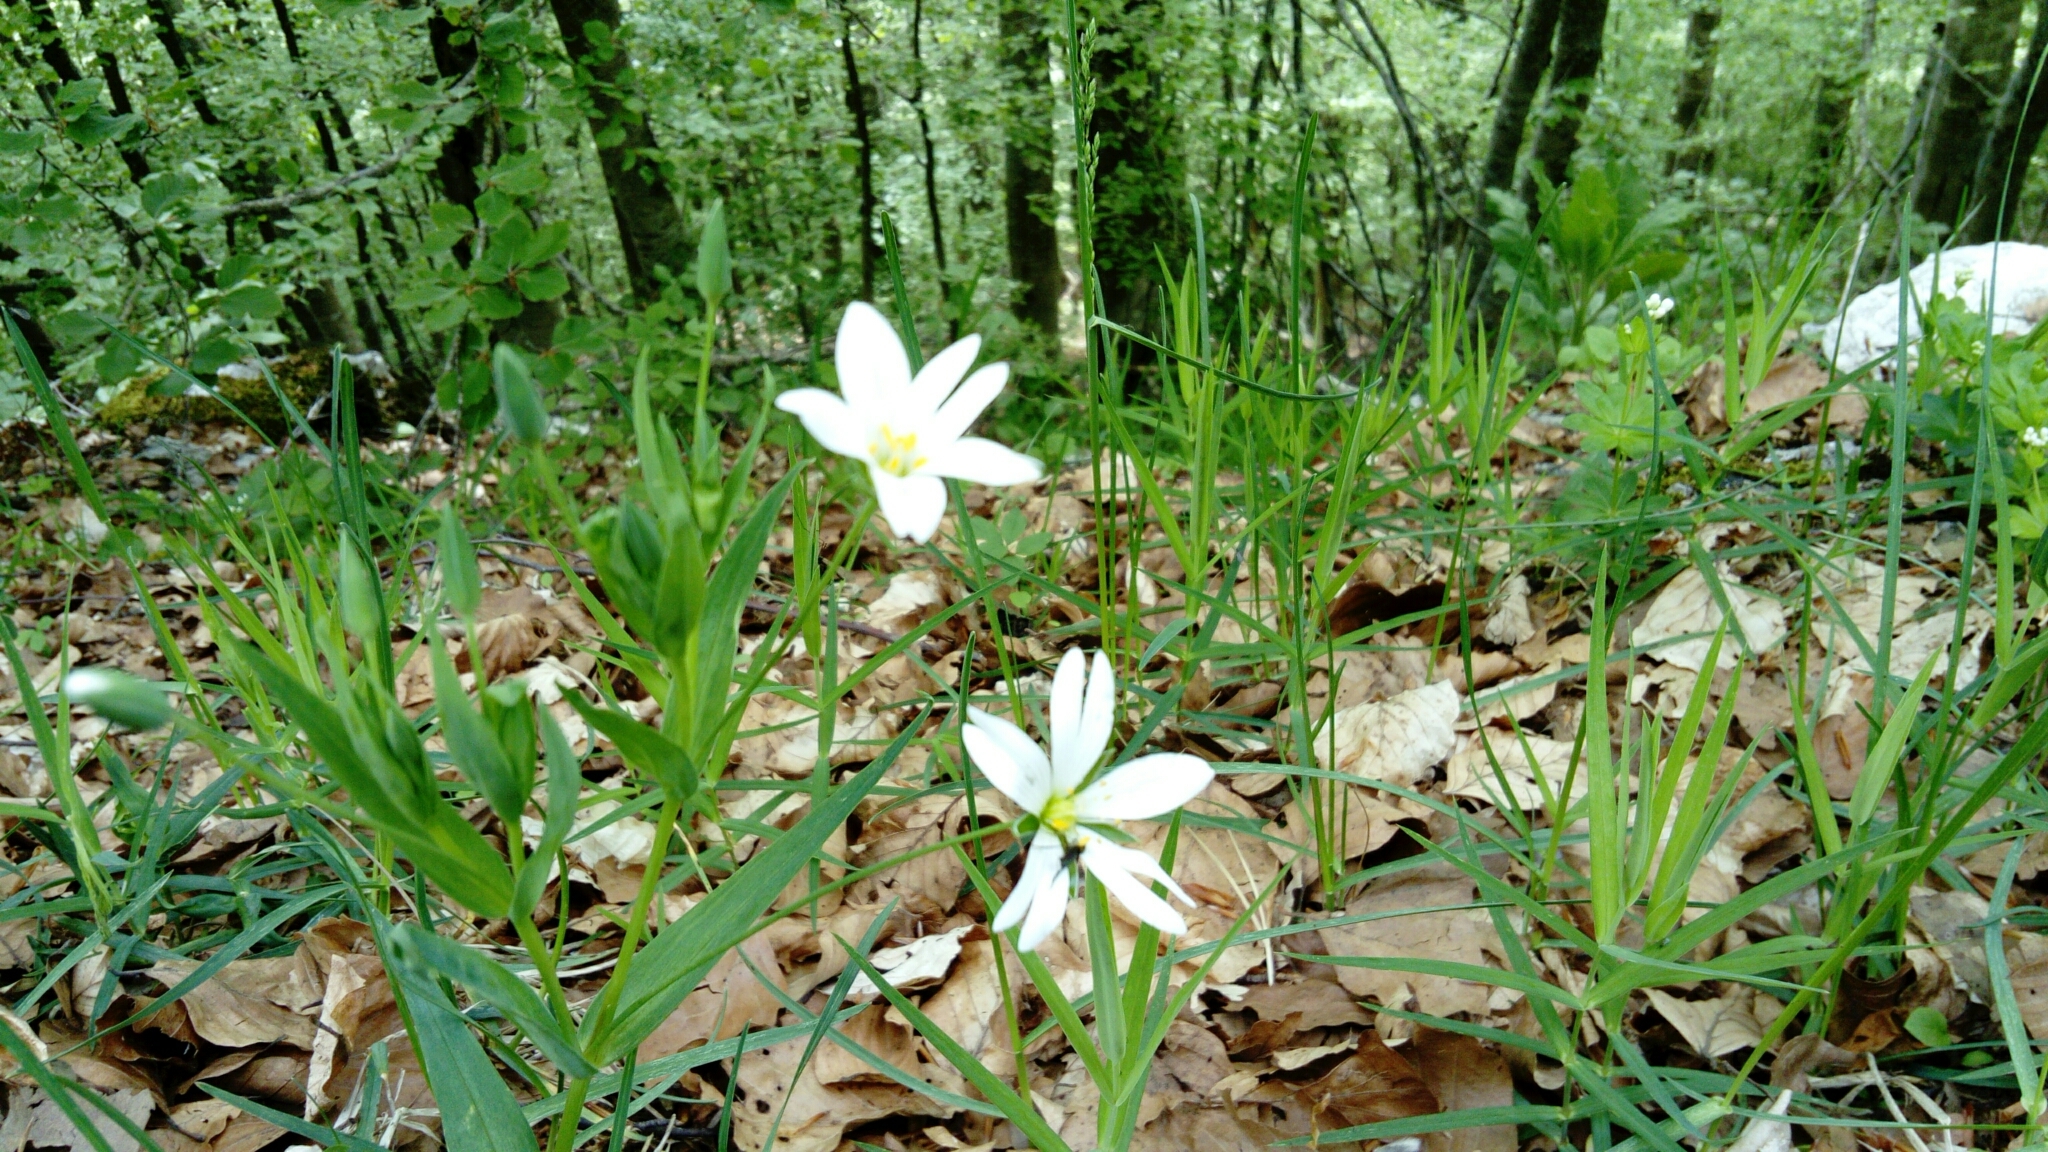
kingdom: Plantae
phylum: Tracheophyta
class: Magnoliopsida
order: Caryophyllales
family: Caryophyllaceae
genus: Rabelera
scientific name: Rabelera holostea
